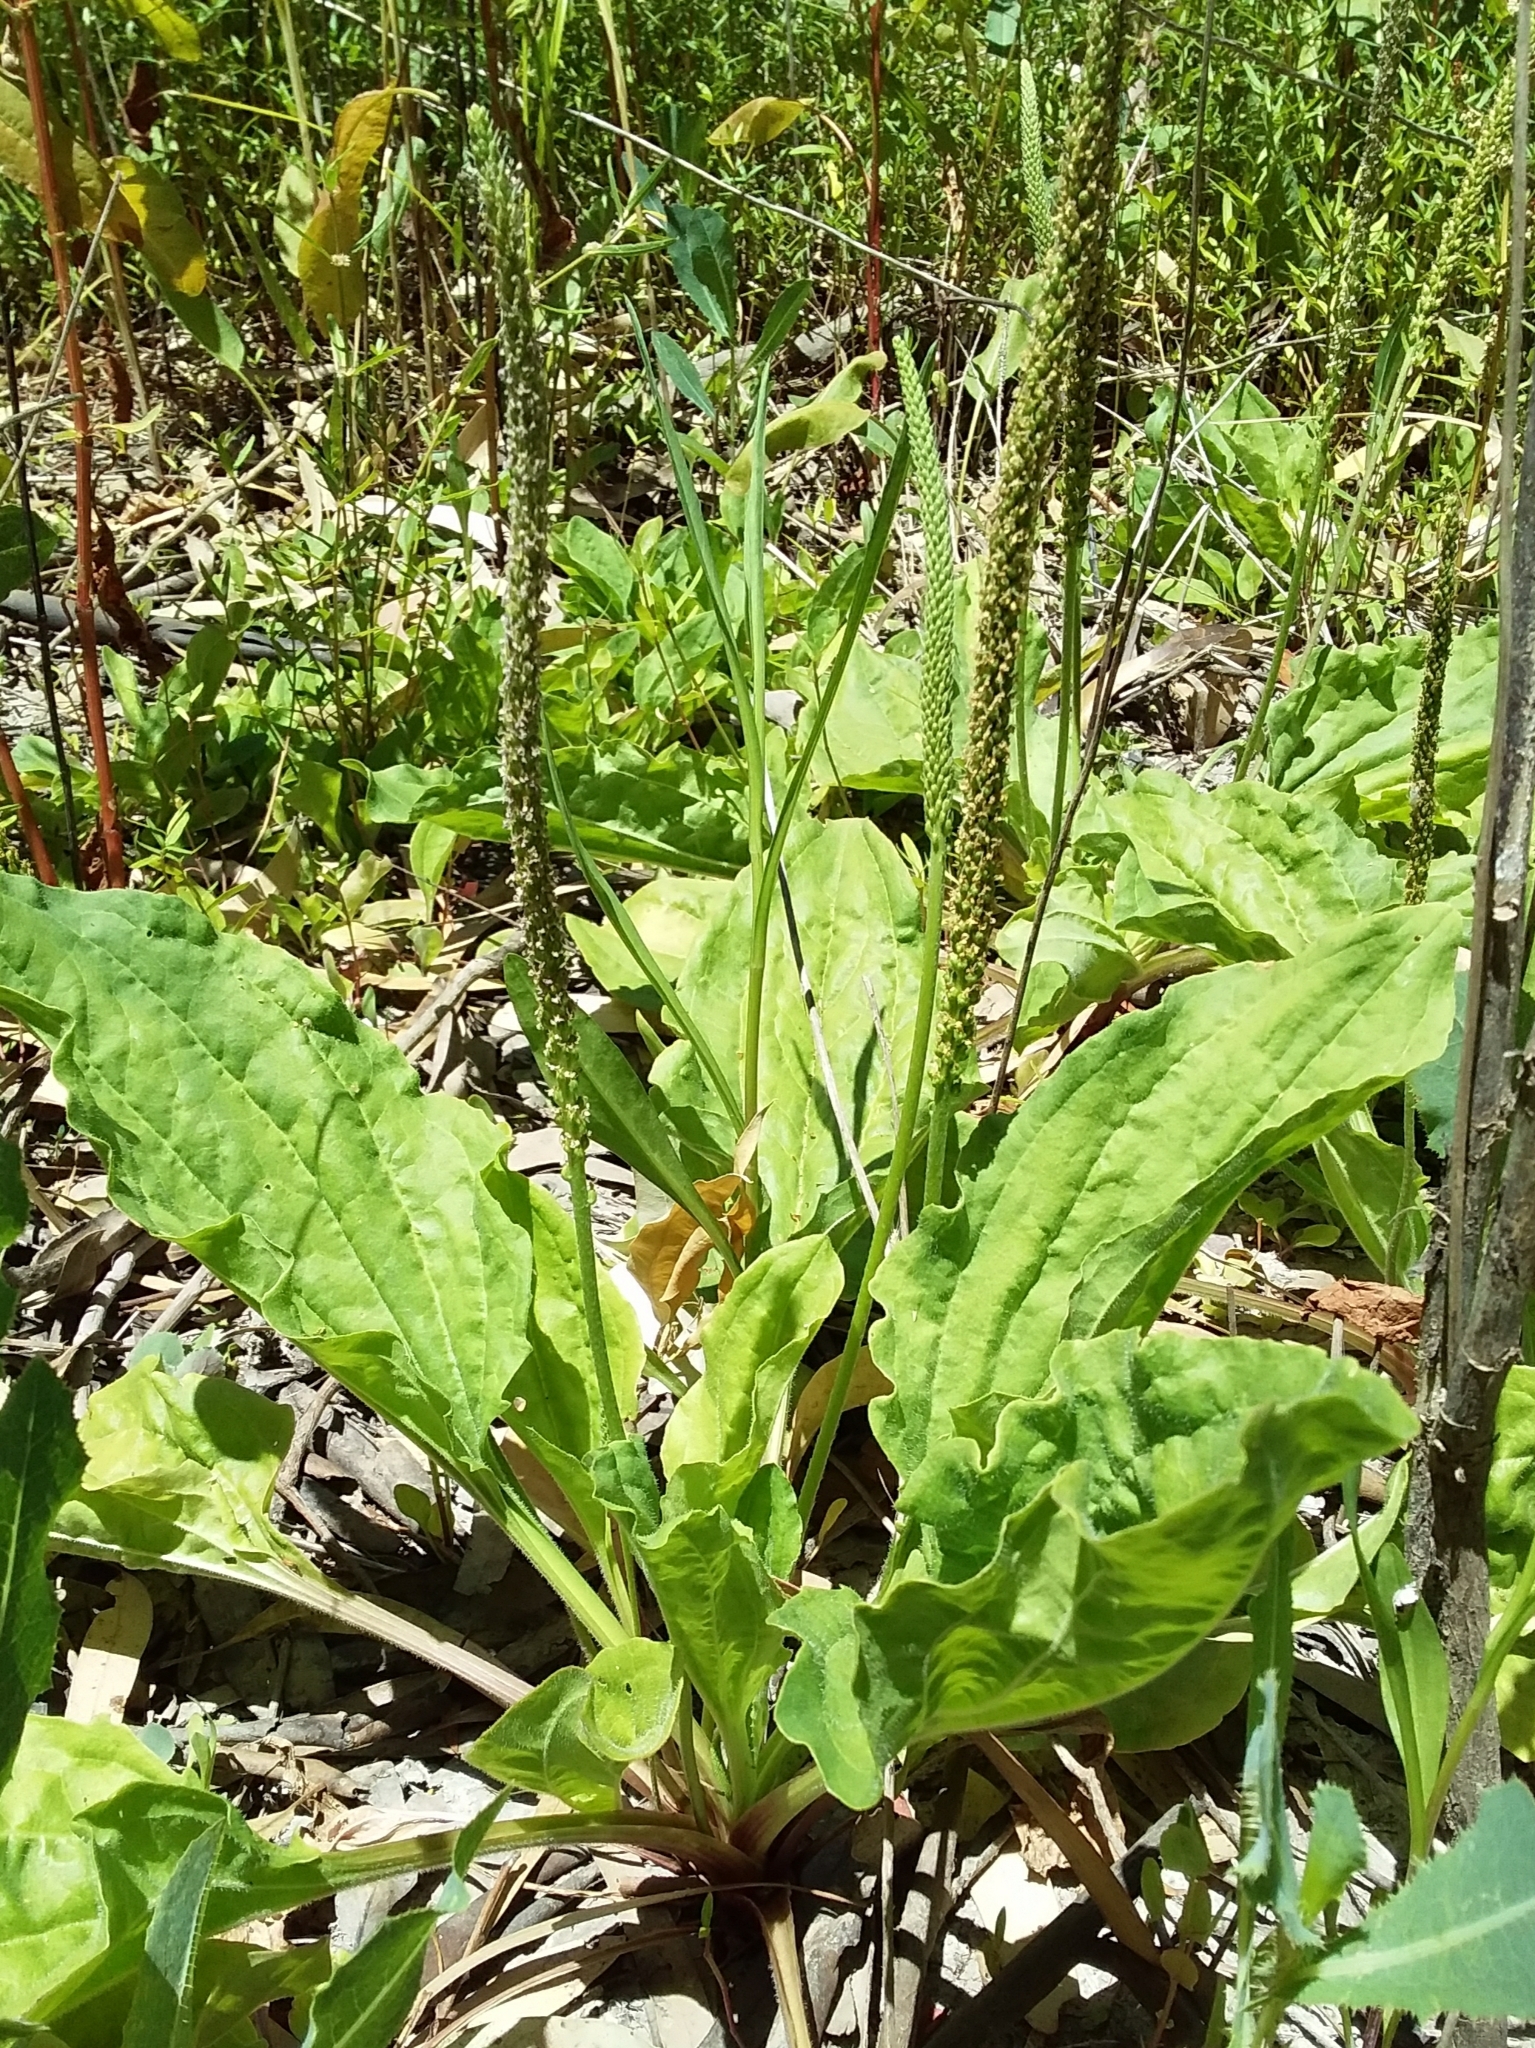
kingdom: Plantae
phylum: Tracheophyta
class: Magnoliopsida
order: Lamiales
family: Plantaginaceae
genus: Plantago
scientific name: Plantago major
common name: Common plantain
